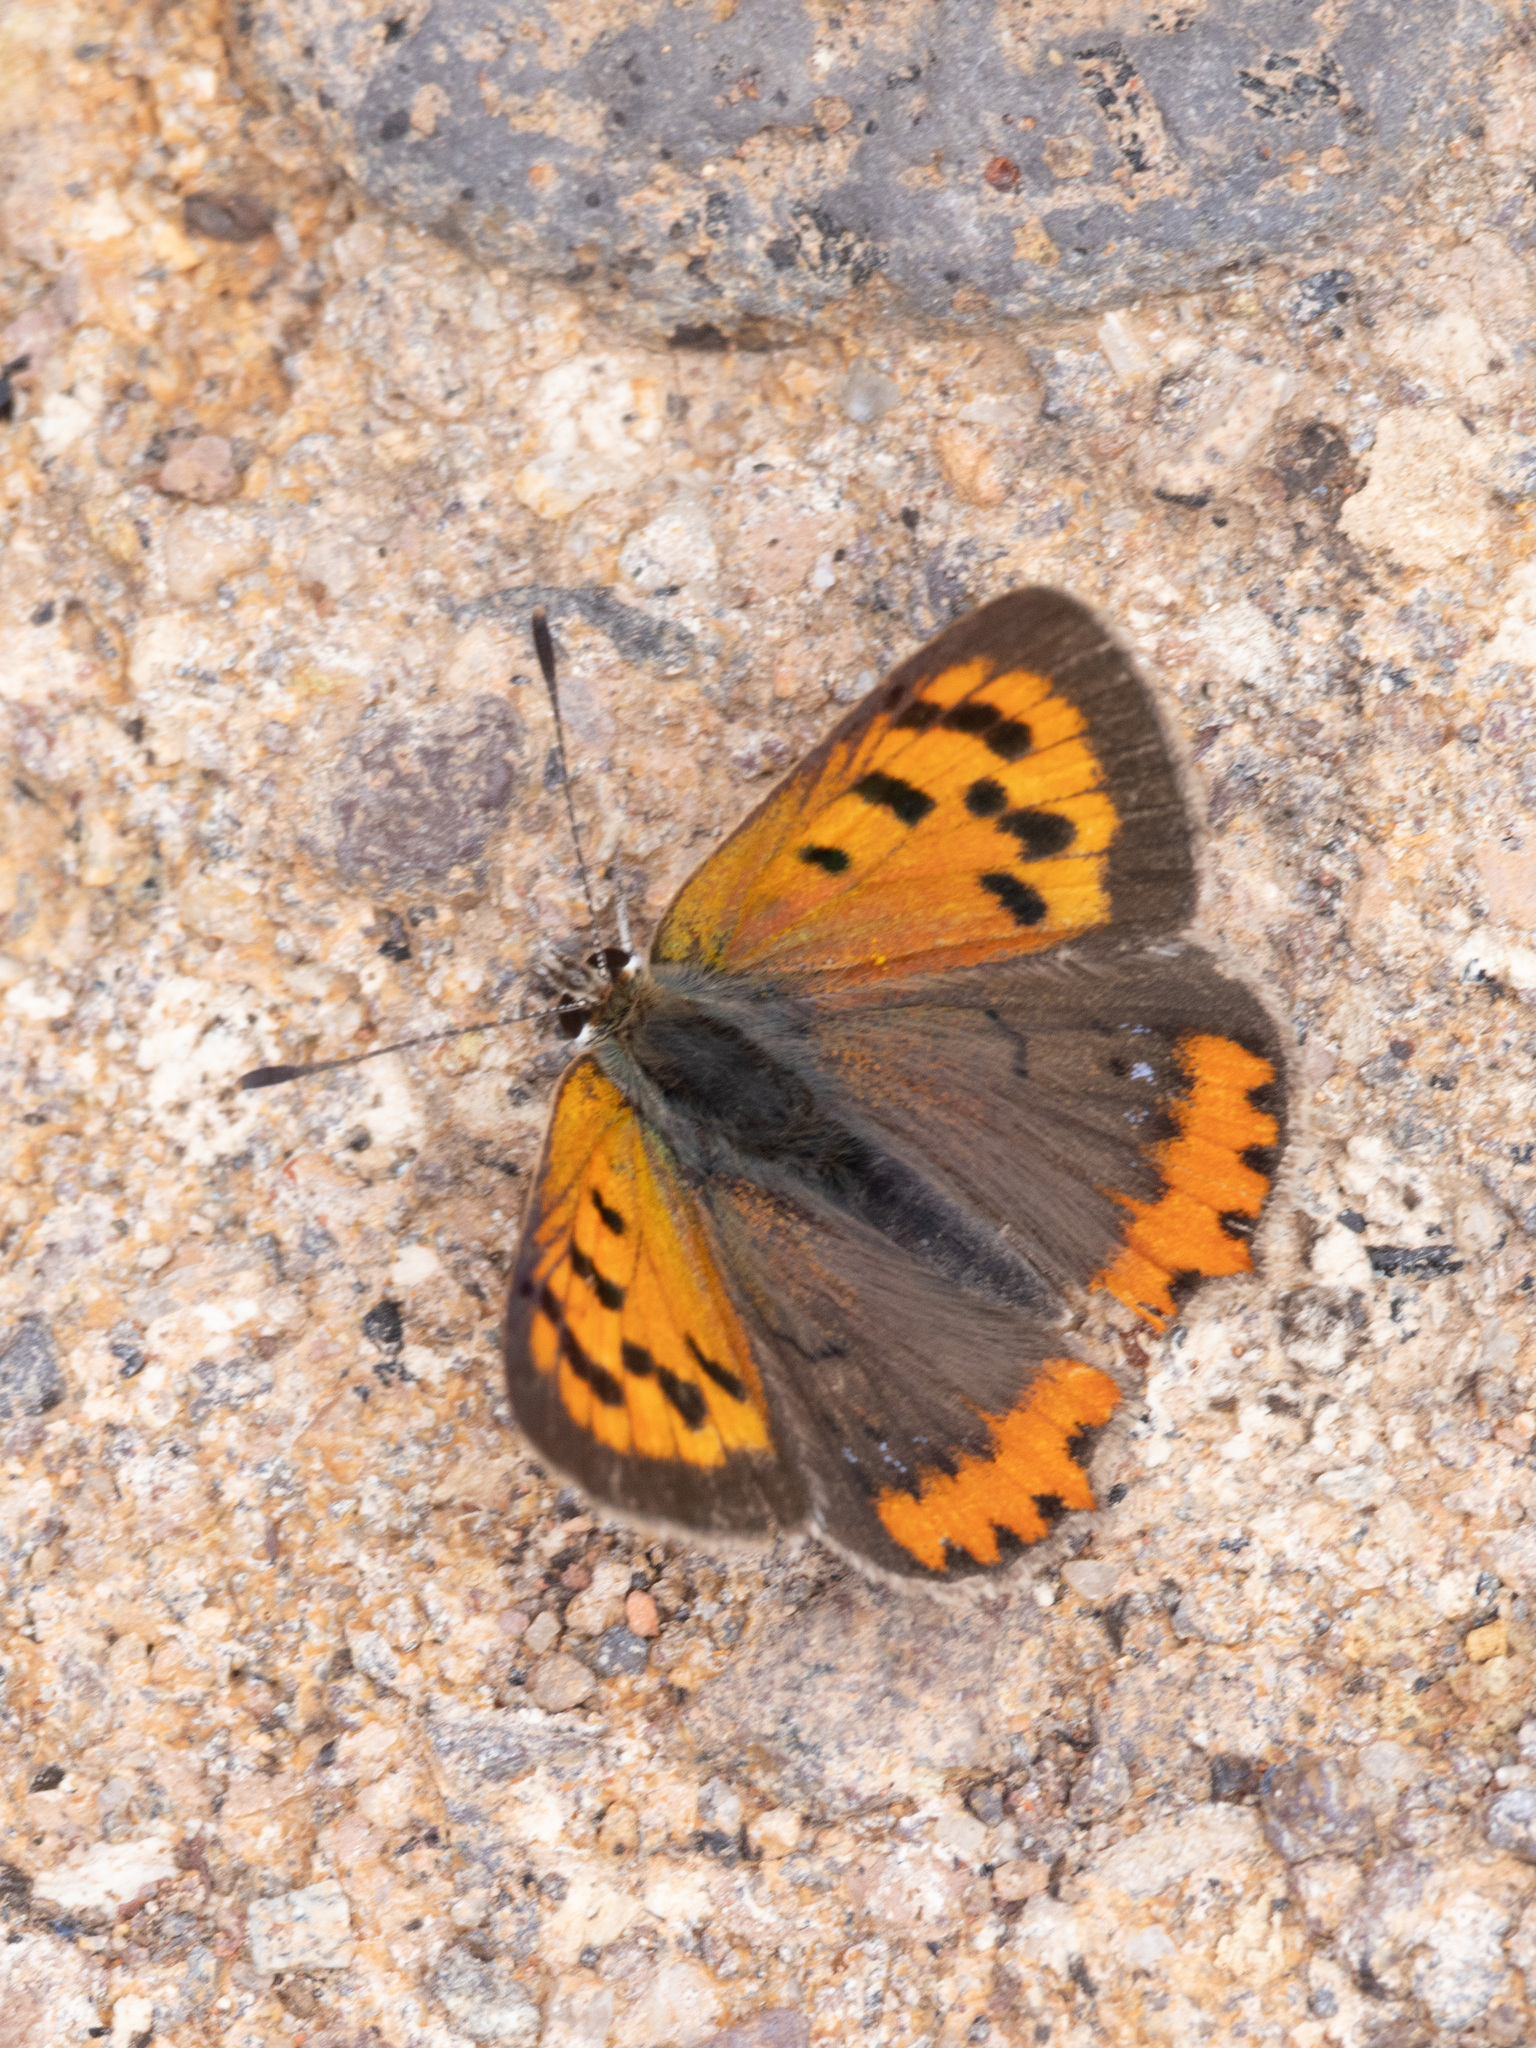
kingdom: Animalia
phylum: Arthropoda
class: Insecta
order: Lepidoptera
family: Lycaenidae
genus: Lycaena
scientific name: Lycaena phlaeas
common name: Small copper
